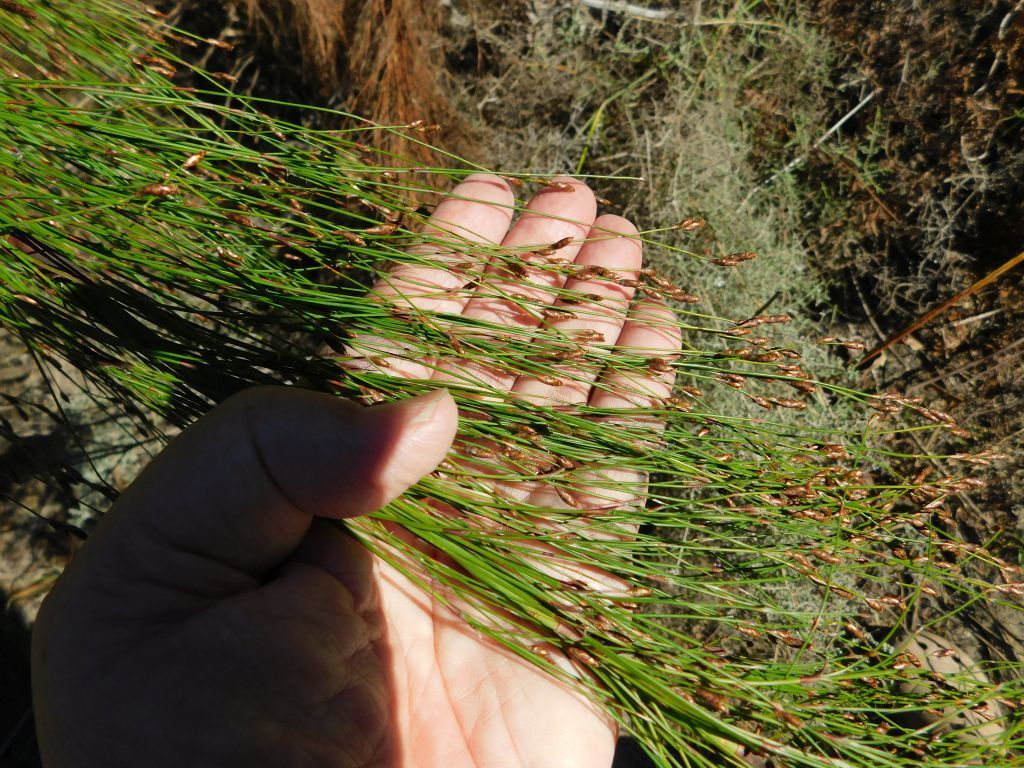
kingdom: Plantae
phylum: Tracheophyta
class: Liliopsida
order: Poales
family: Restionaceae
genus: Restio
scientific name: Restio subverticillatus
